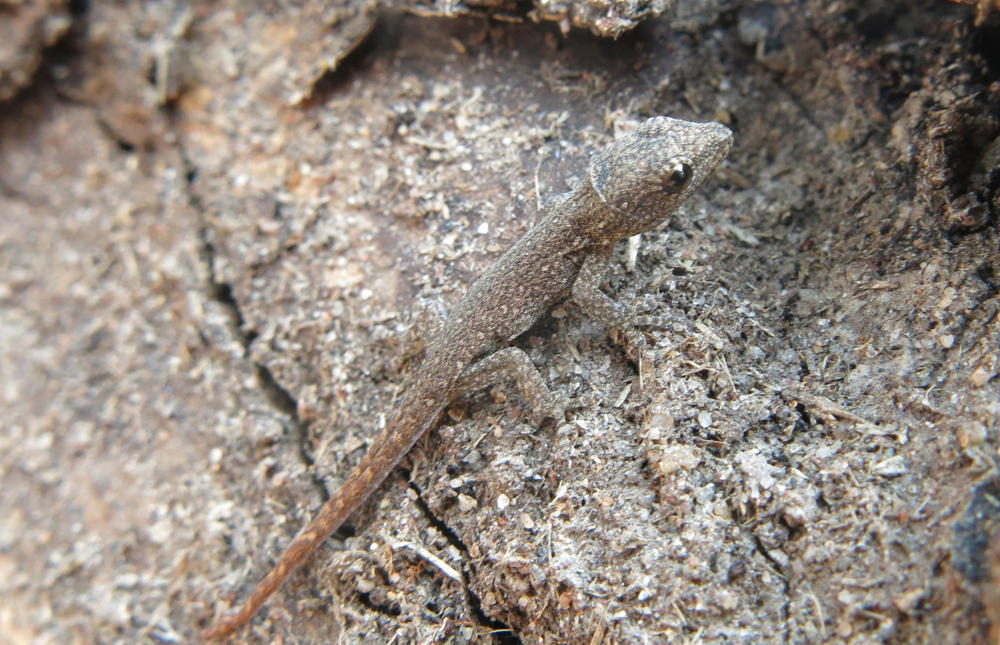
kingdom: Animalia
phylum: Chordata
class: Squamata
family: Gekkonidae
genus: Lygodactylus
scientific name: Lygodactylus capensis
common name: Cape dwarf gecko
